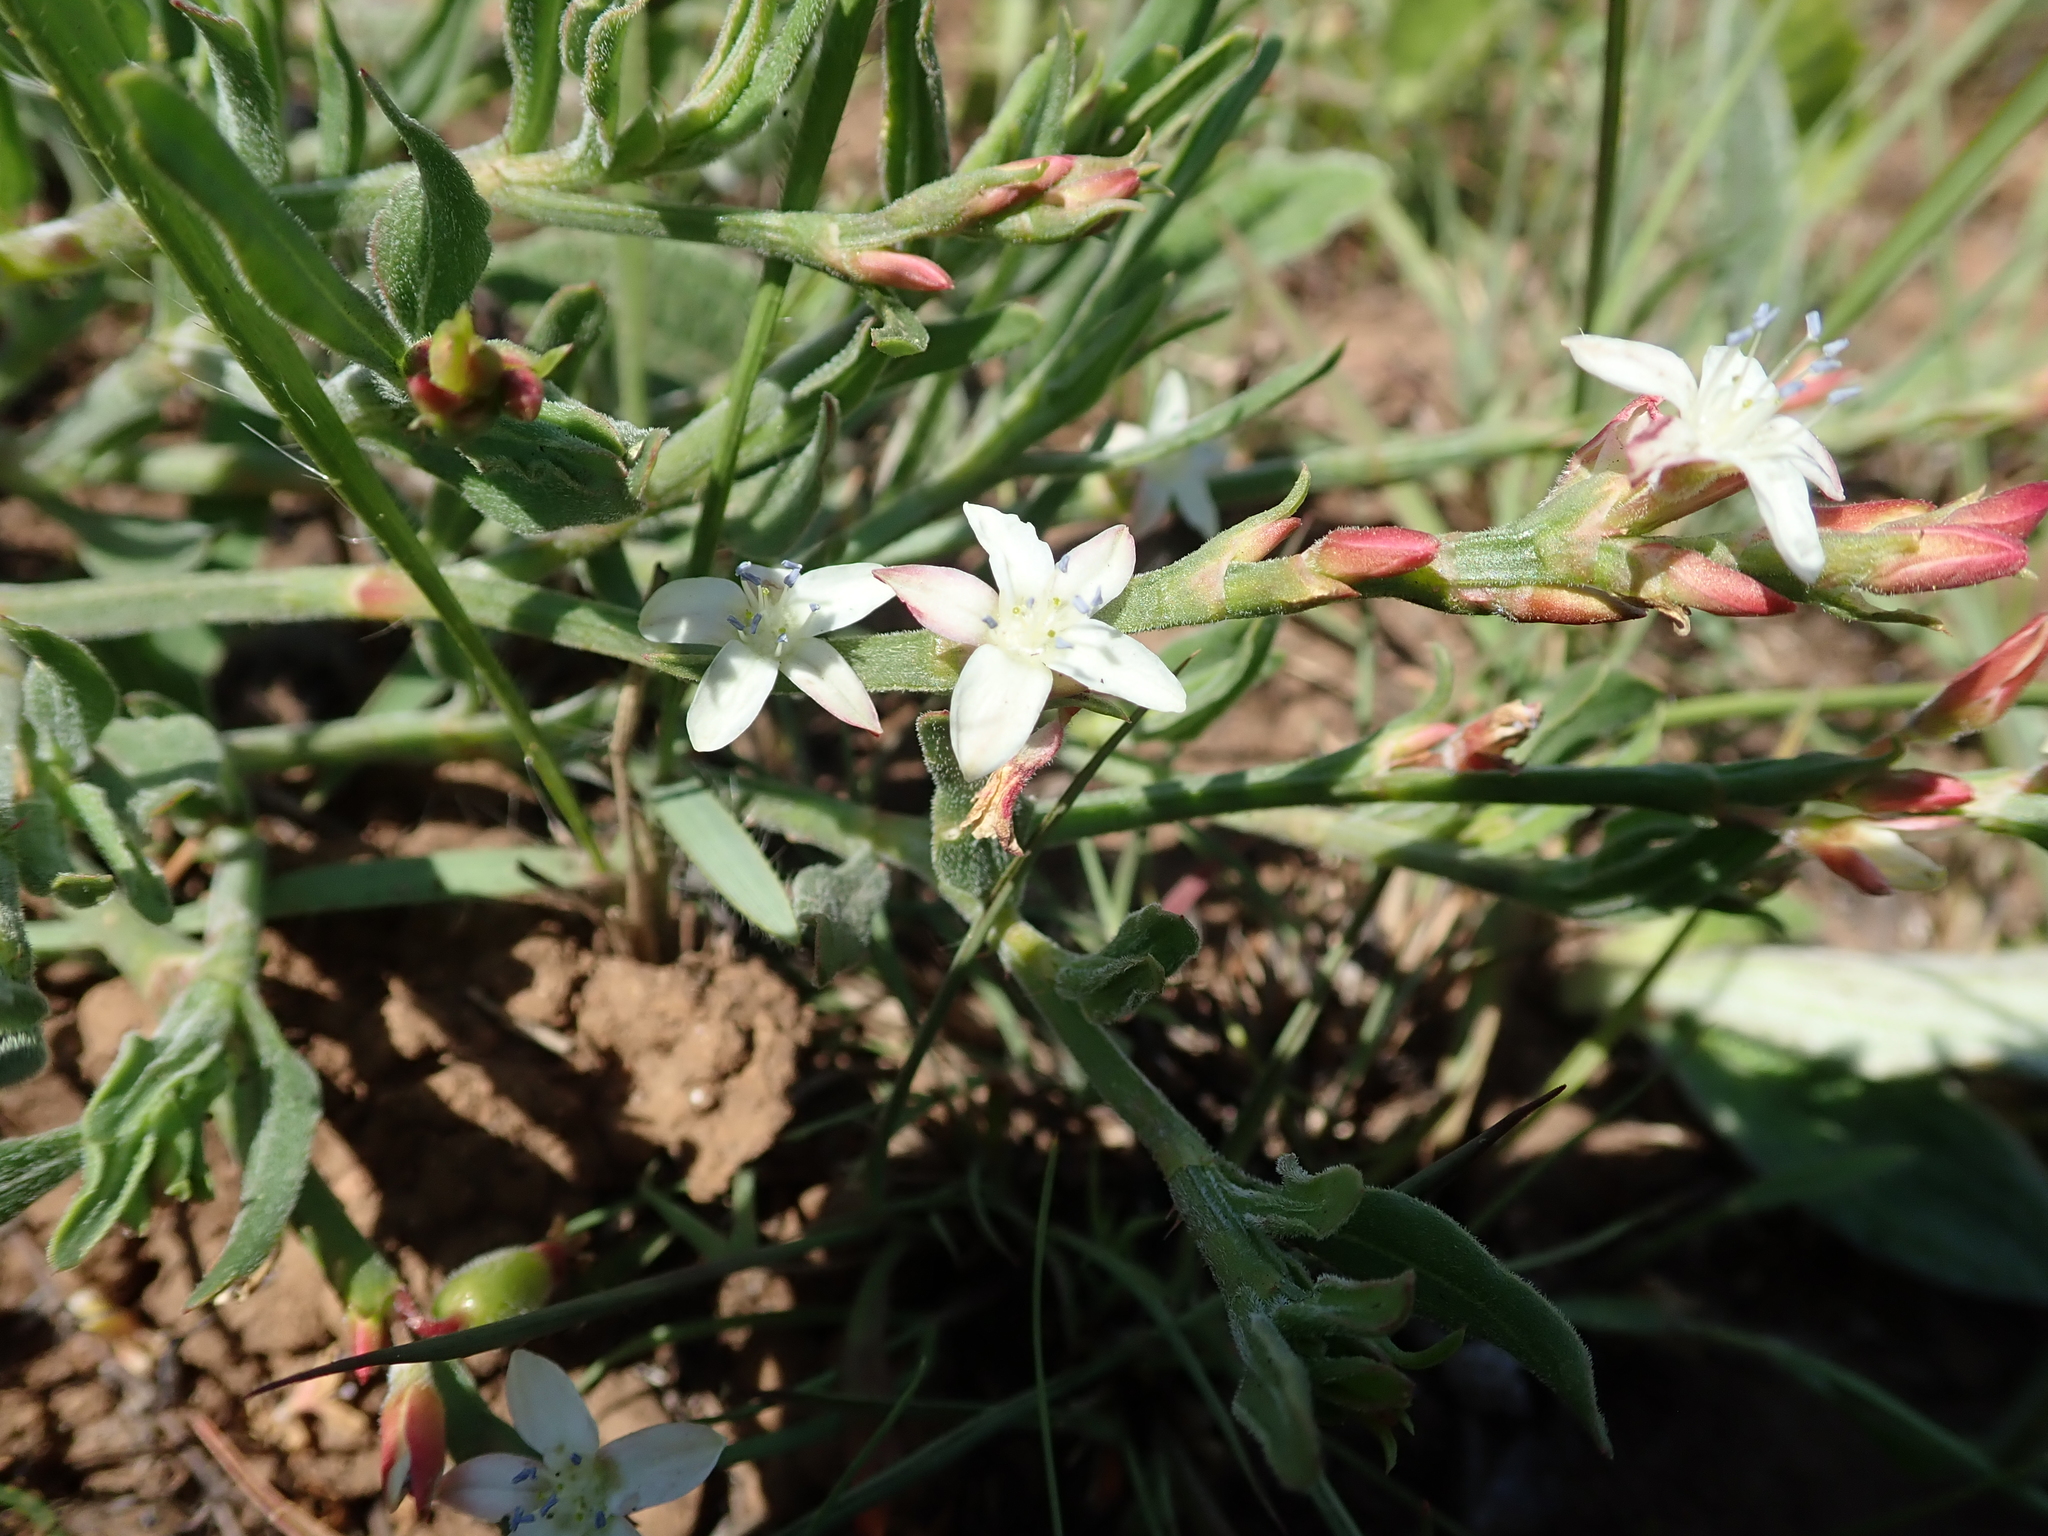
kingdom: Plantae
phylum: Tracheophyta
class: Magnoliopsida
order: Caryophyllales
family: Polygonaceae
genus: Oxygonum
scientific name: Oxygonum dregeanum
